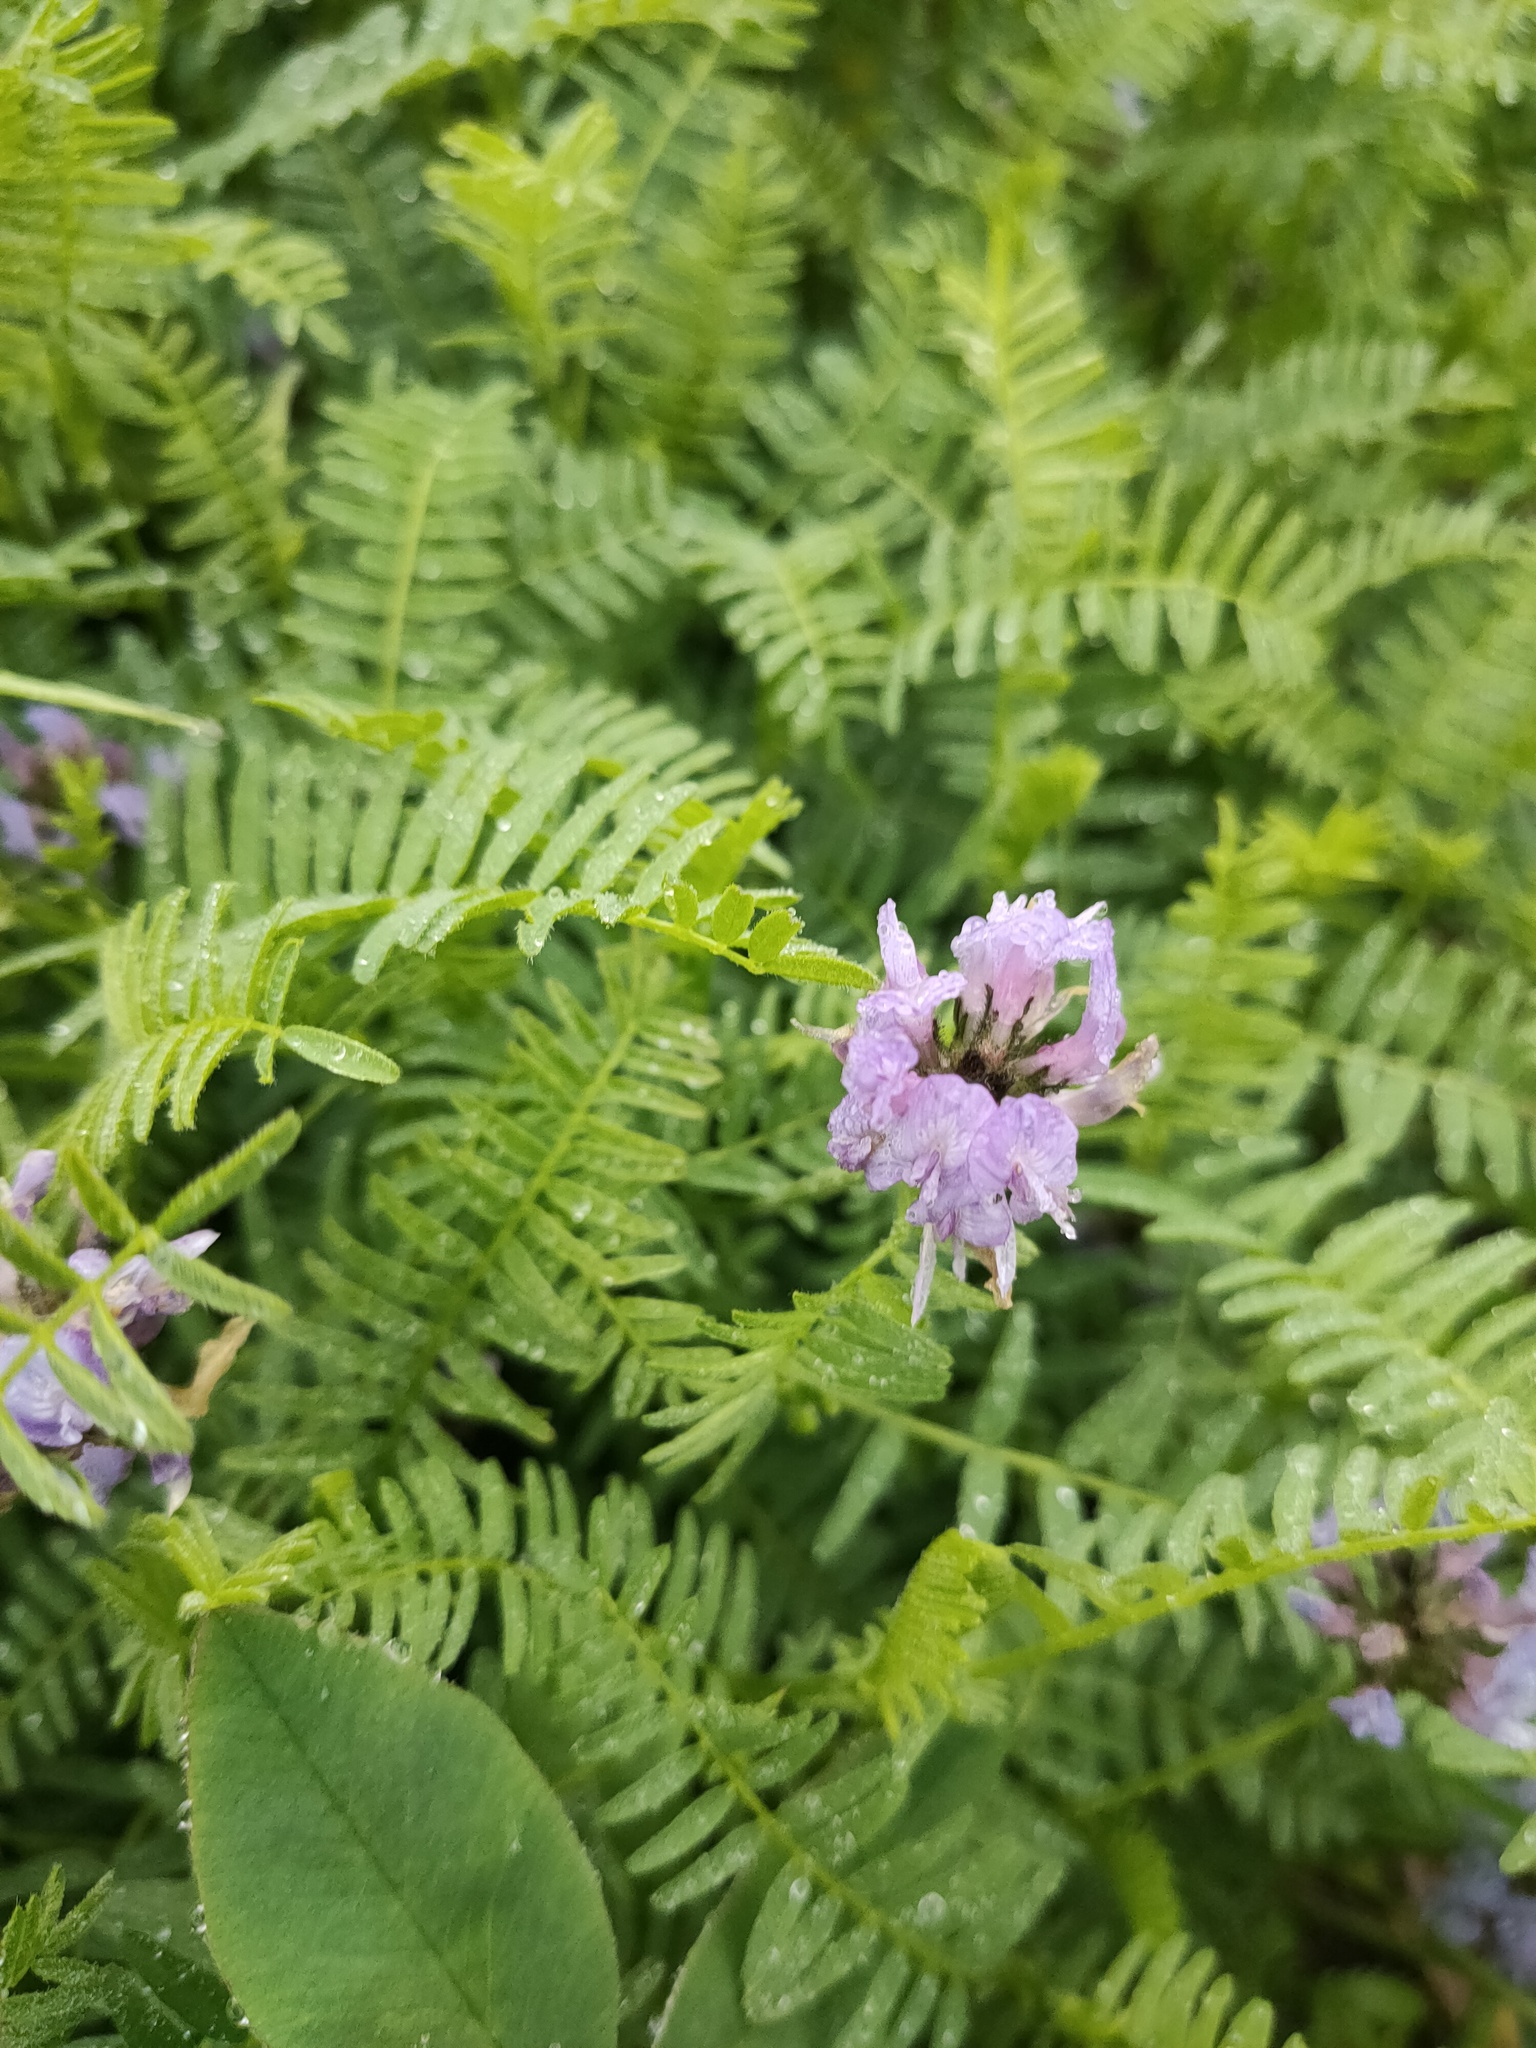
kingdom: Plantae
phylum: Tracheophyta
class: Magnoliopsida
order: Fabales
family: Fabaceae
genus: Astragalus
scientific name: Astragalus danicus
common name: Purple milk-vetch
